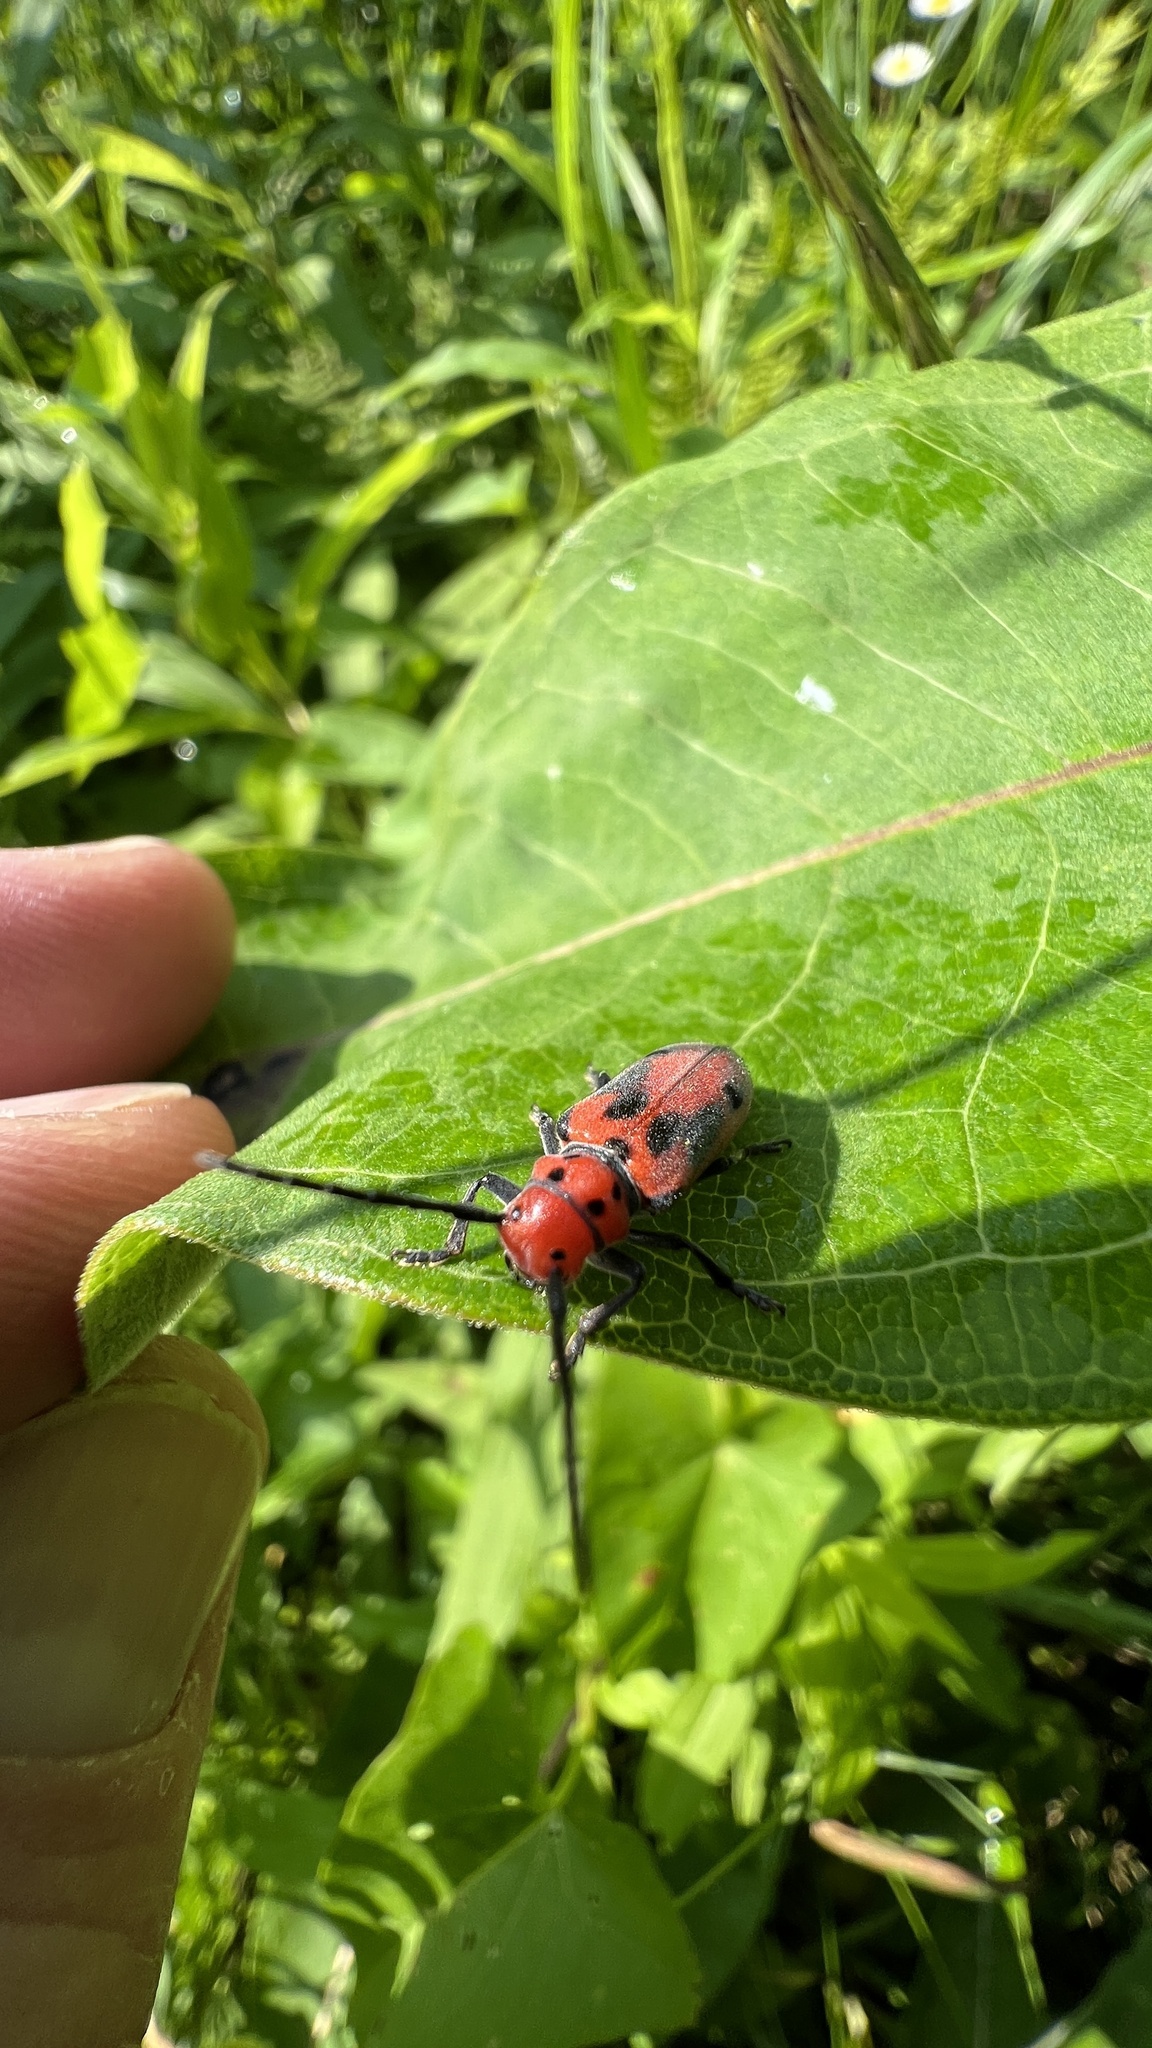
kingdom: Animalia
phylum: Arthropoda
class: Insecta
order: Coleoptera
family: Cerambycidae
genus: Tetraopes
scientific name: Tetraopes tetrophthalmus
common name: Red milkweed beetle
